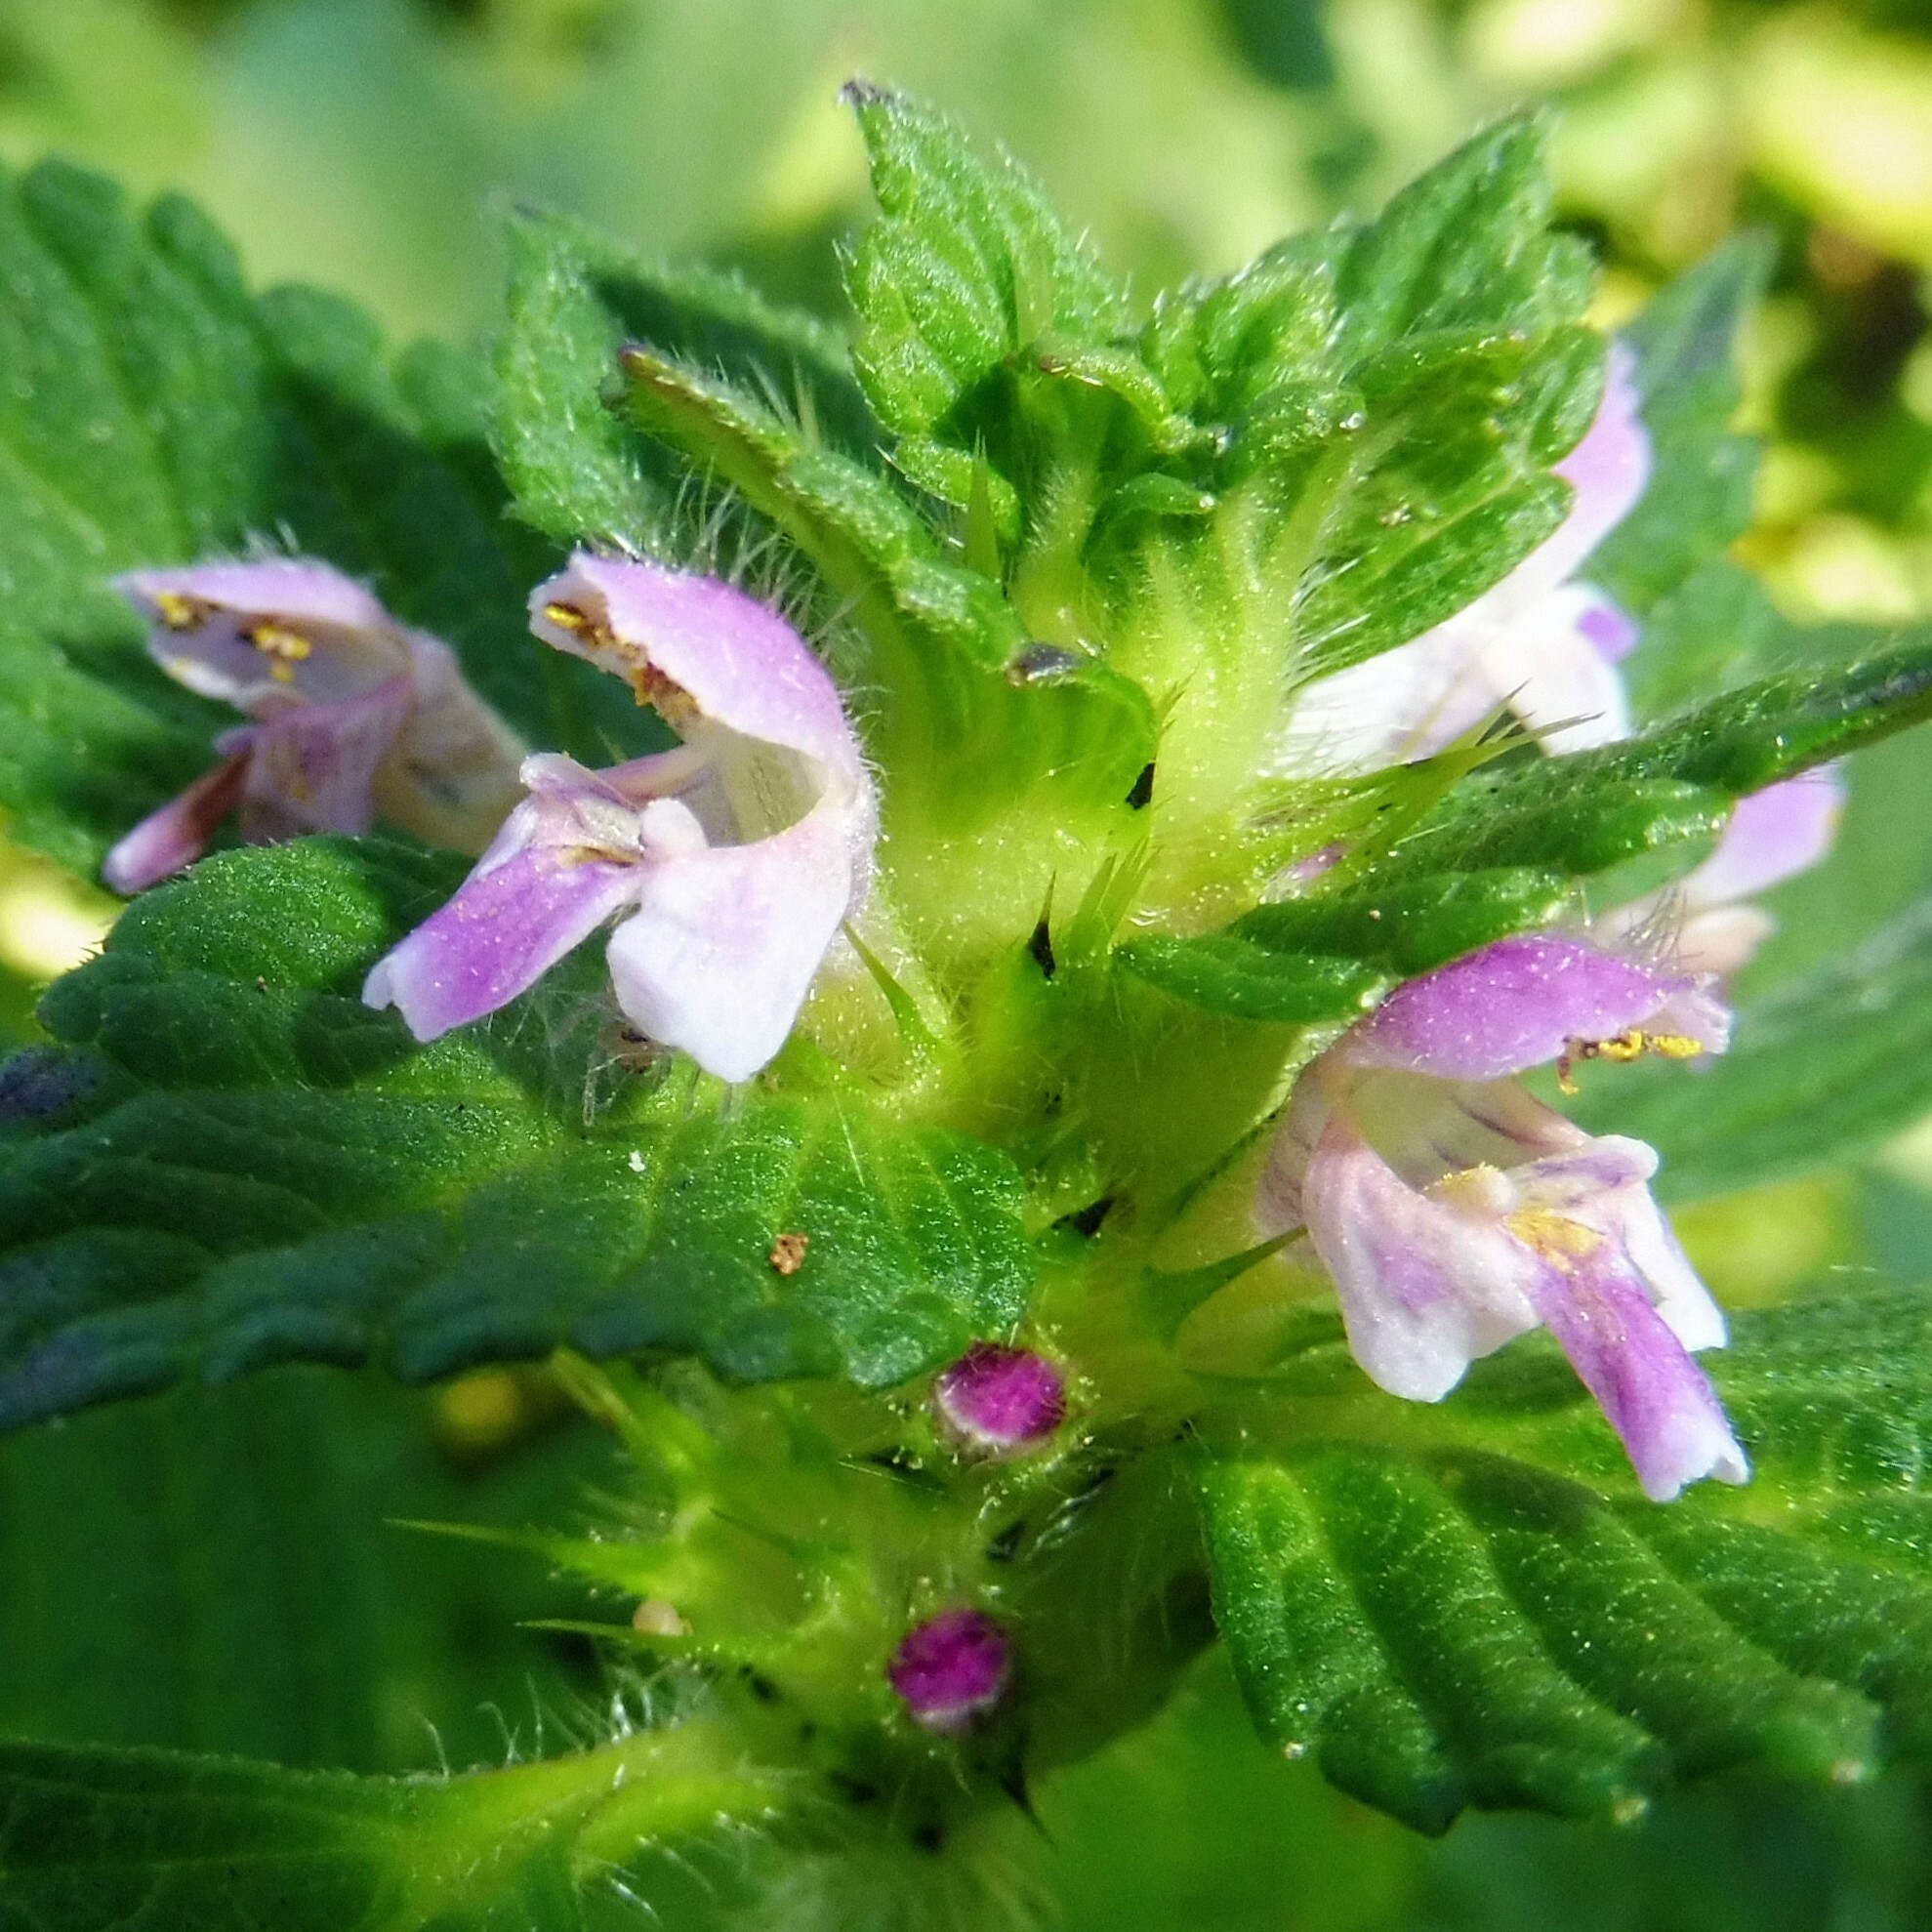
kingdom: Plantae
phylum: Tracheophyta
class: Magnoliopsida
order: Lamiales
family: Lamiaceae
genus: Galeopsis
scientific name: Galeopsis bifida
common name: Bifid hemp-nettle
